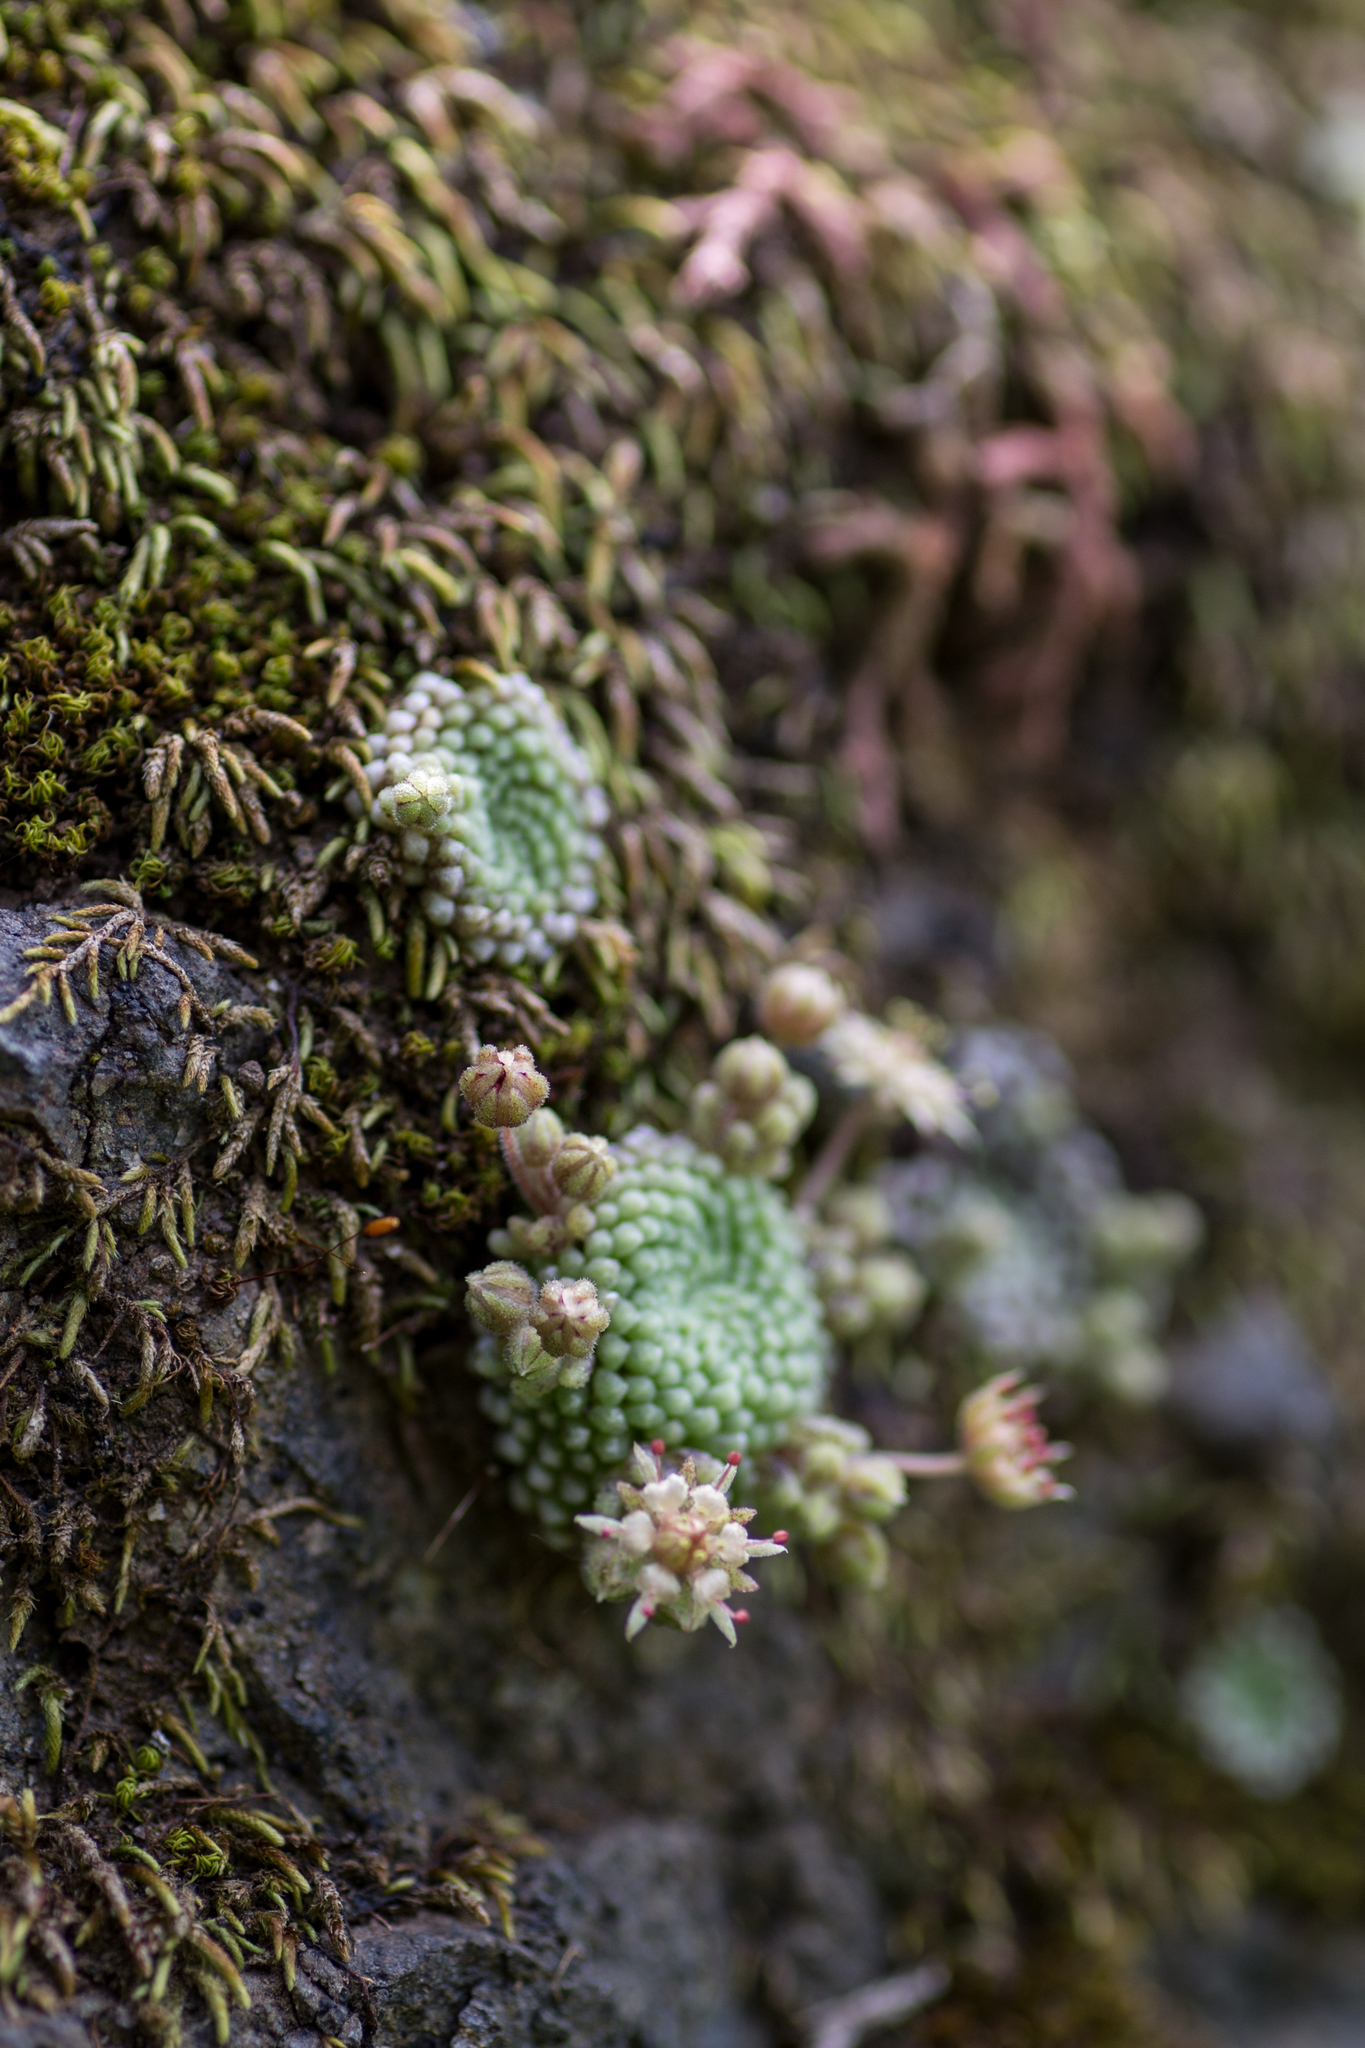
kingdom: Plantae
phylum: Tracheophyta
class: Magnoliopsida
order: Saxifragales
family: Crassulaceae
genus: Monanthes
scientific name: Monanthes pallens
